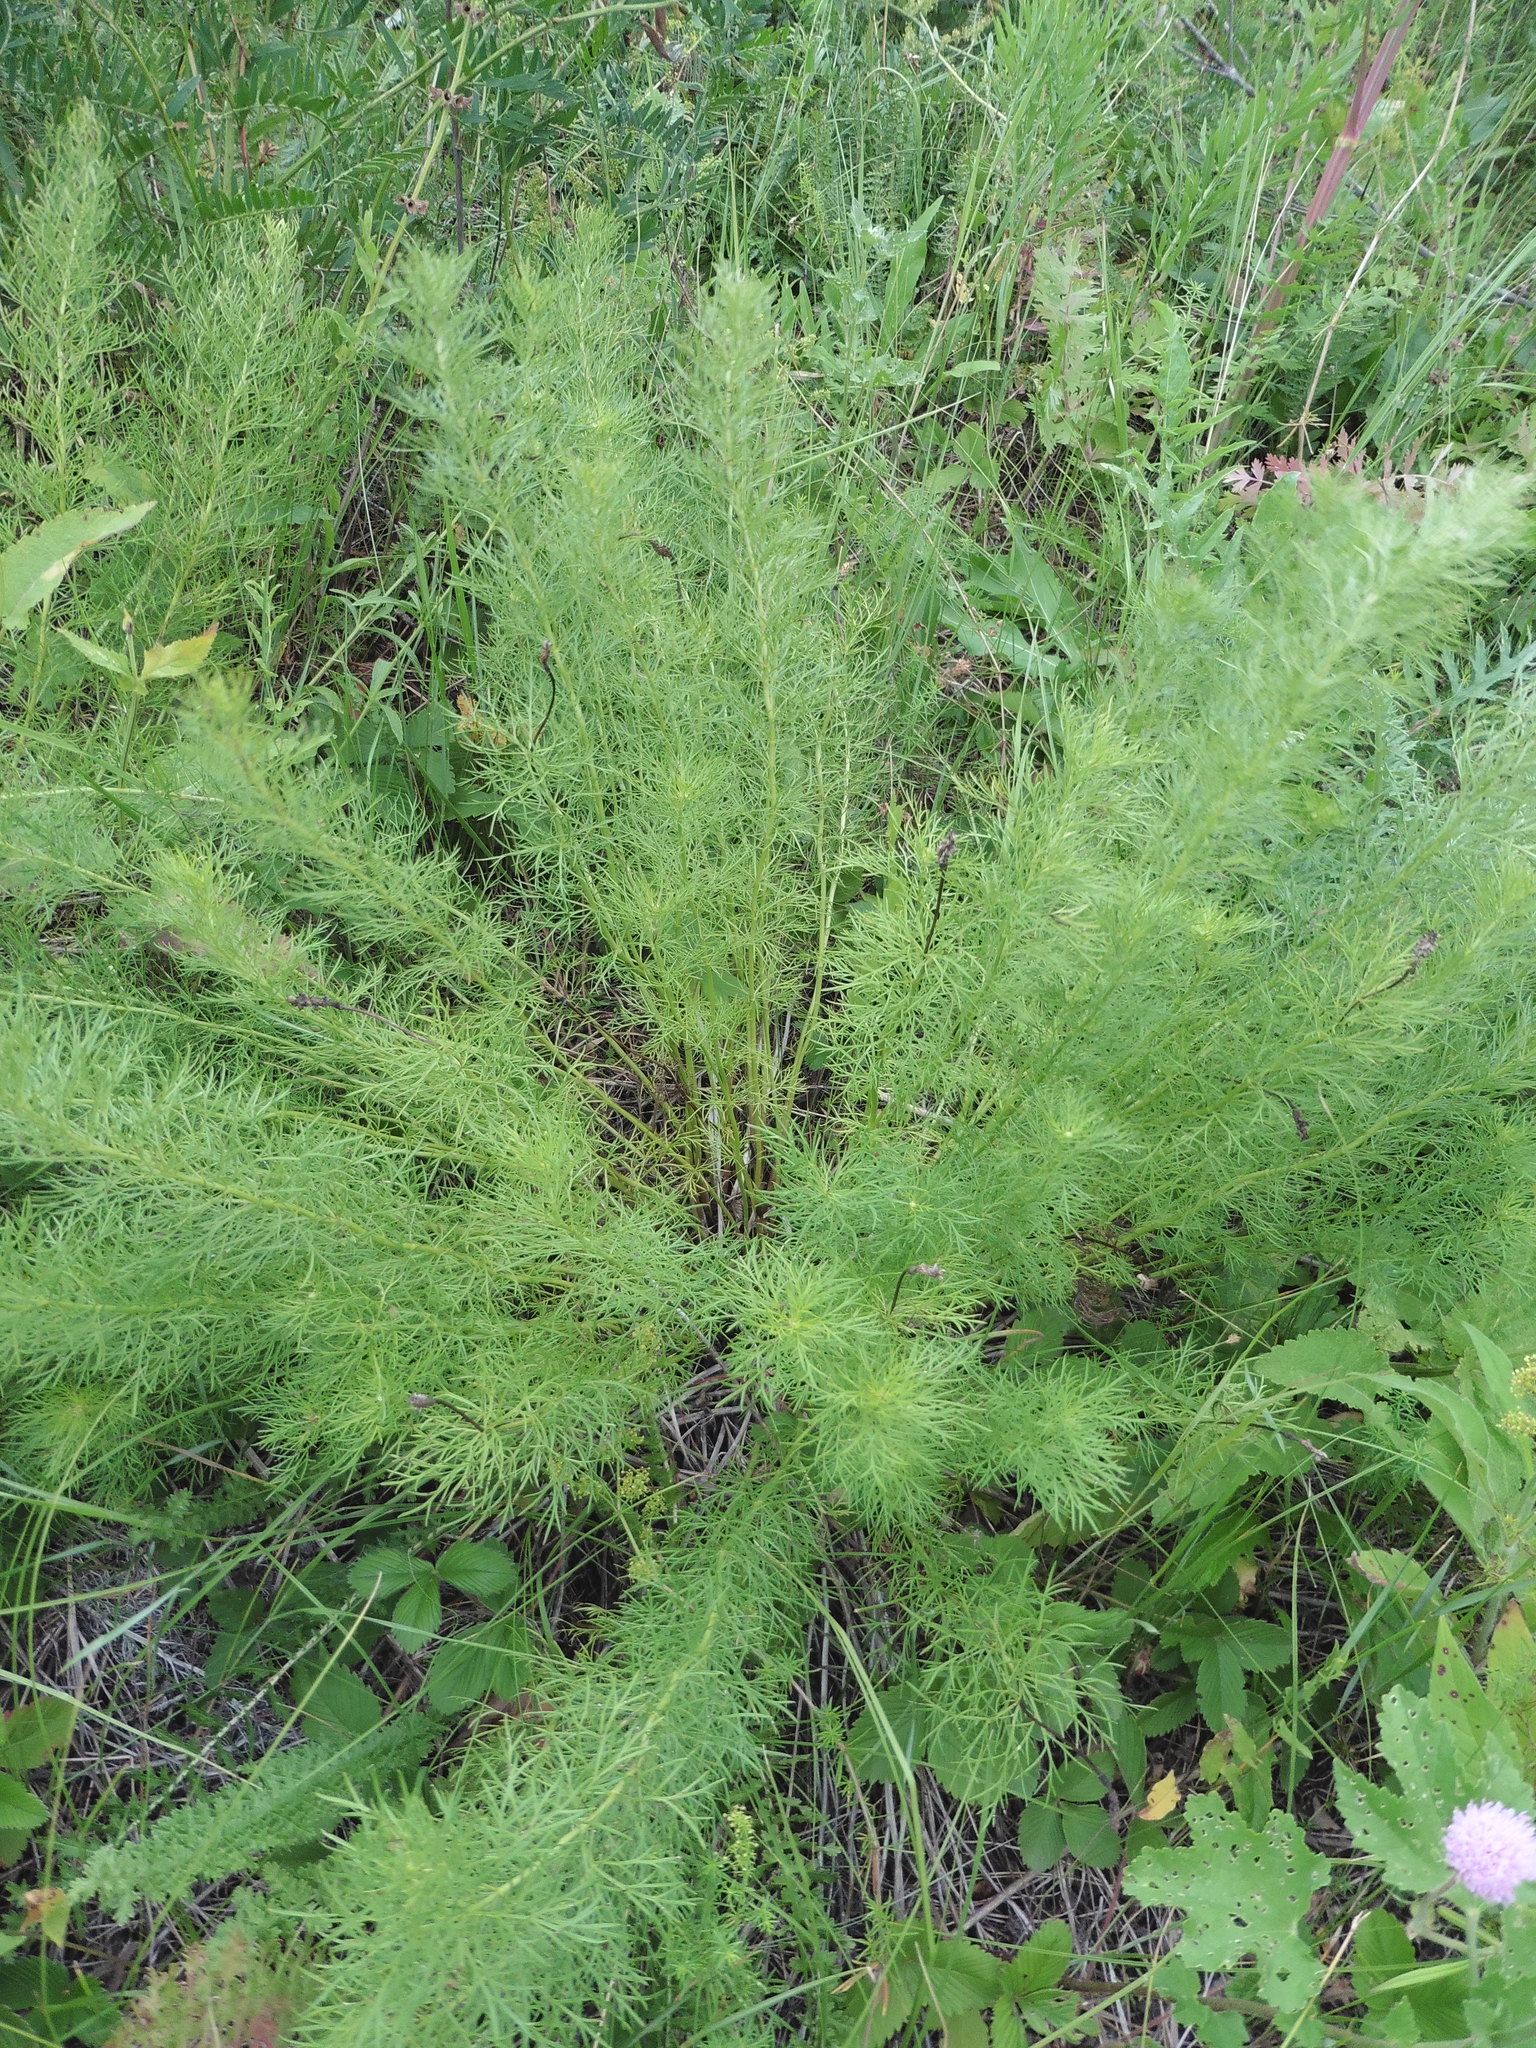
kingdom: Plantae
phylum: Tracheophyta
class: Magnoliopsida
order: Ranunculales
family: Ranunculaceae
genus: Adonis
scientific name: Adonis vernalis
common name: Yellow pheasants-eye
